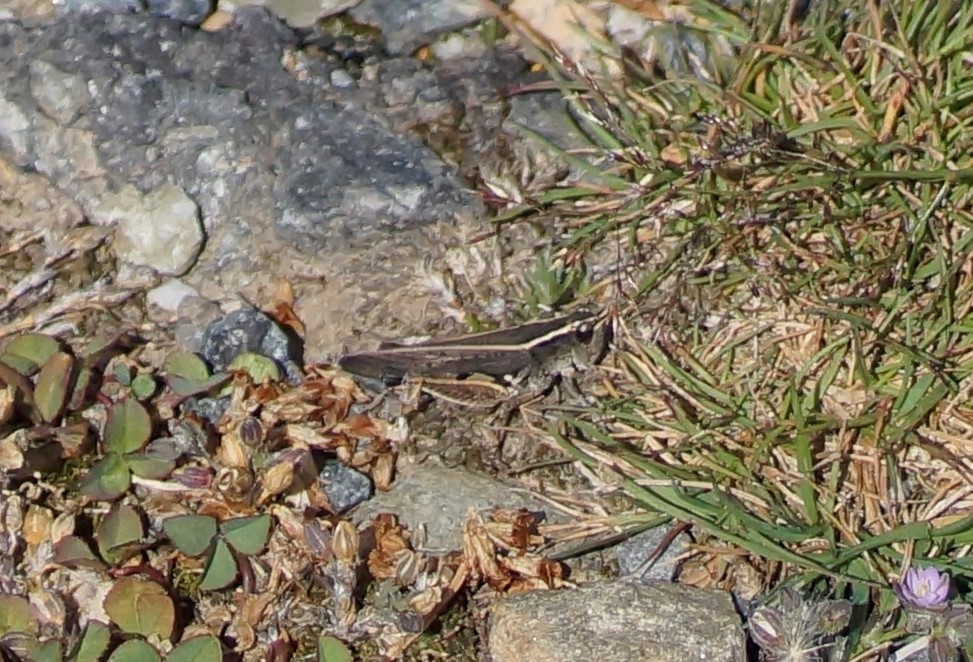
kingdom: Animalia
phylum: Arthropoda
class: Insecta
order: Orthoptera
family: Acrididae
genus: Phaulacridium
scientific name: Phaulacridium vittatum
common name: Wingless grasshopper
